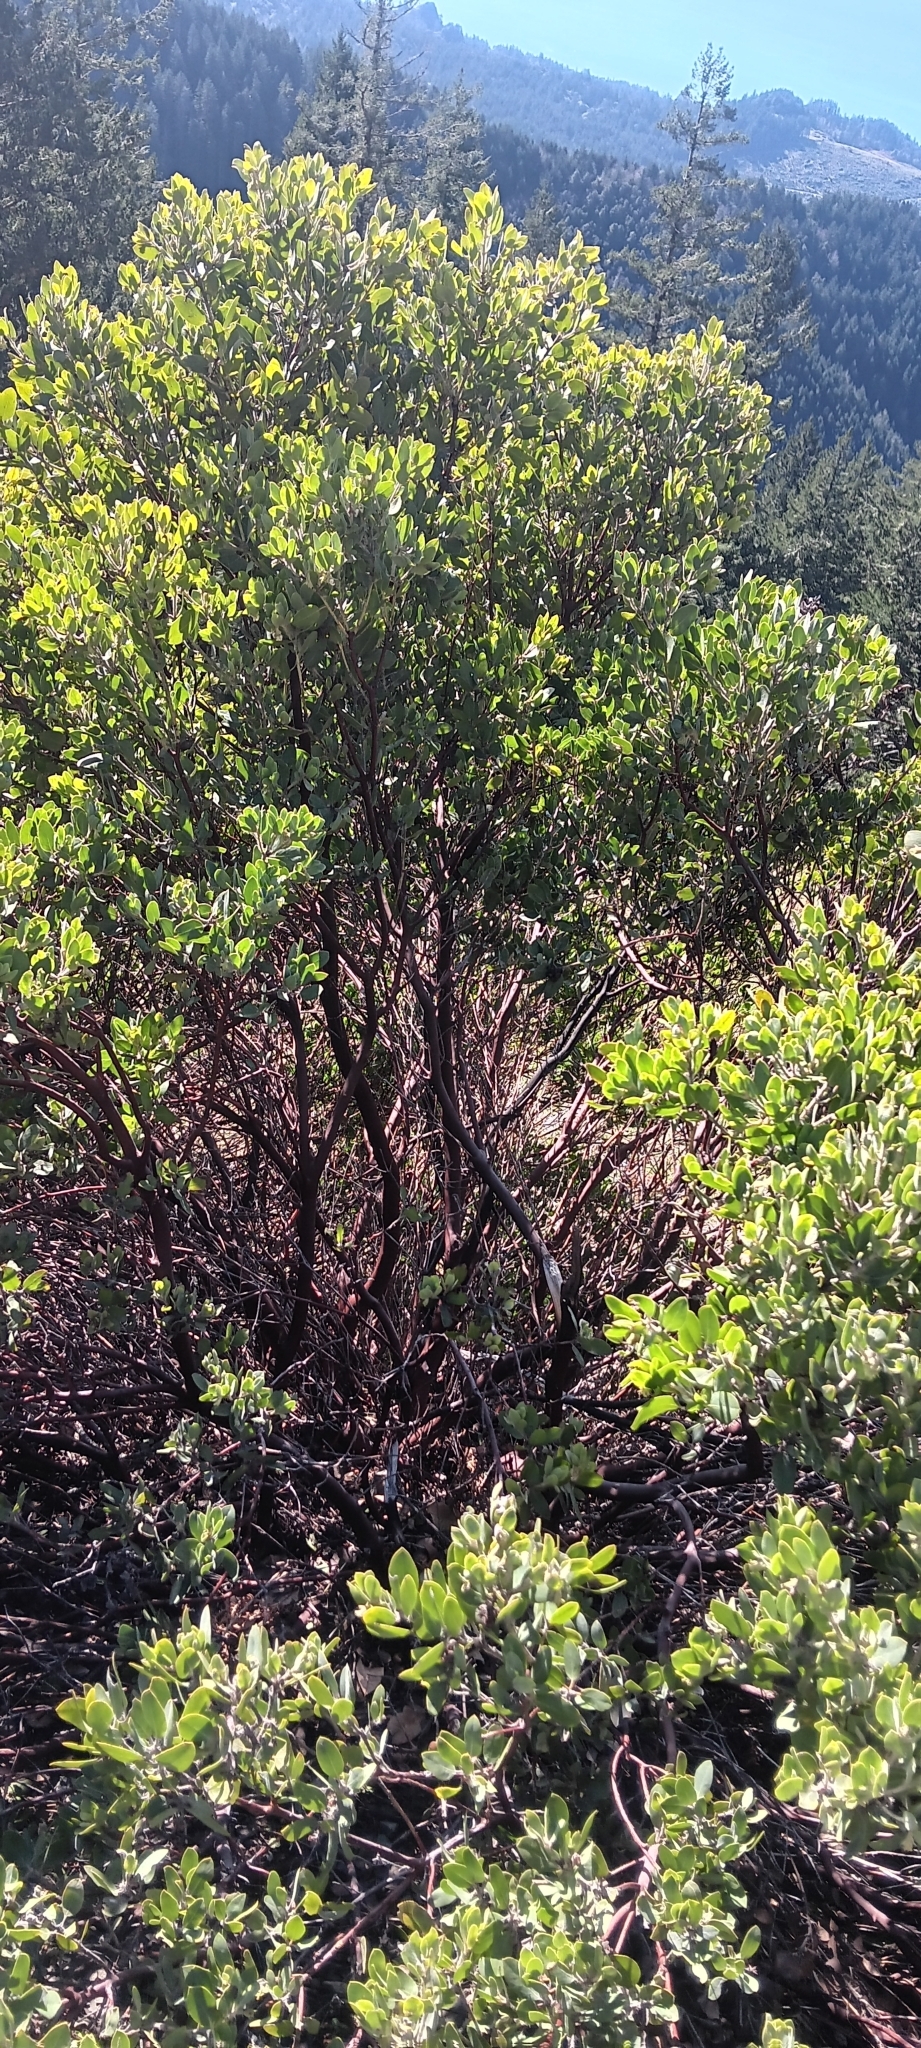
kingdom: Plantae
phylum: Tracheophyta
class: Magnoliopsida
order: Ericales
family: Ericaceae
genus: Arctostaphylos
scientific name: Arctostaphylos columbiana
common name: Bristly bearberry
